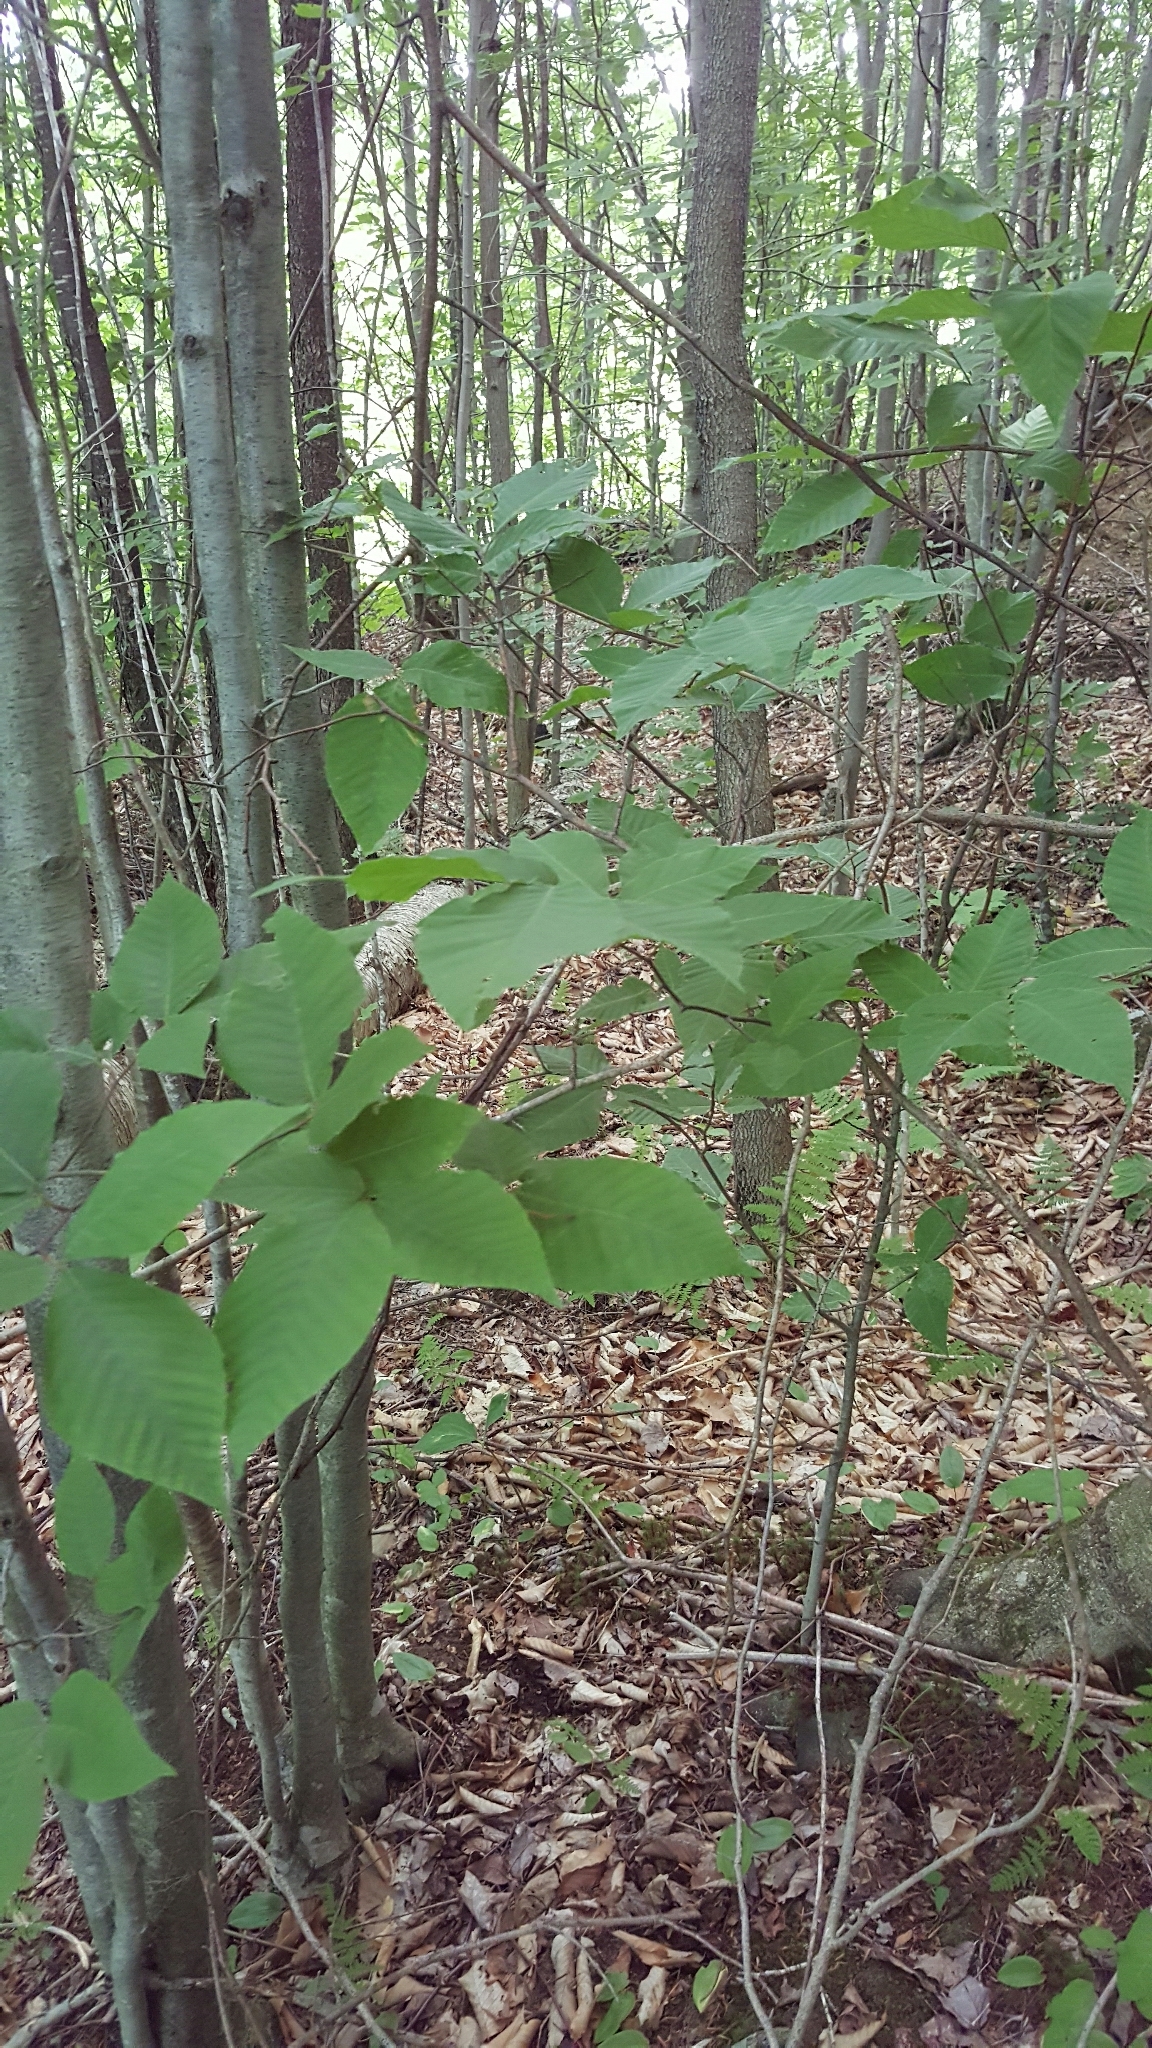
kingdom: Plantae
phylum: Tracheophyta
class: Magnoliopsida
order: Fagales
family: Fagaceae
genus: Fagus
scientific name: Fagus grandifolia
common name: American beech
